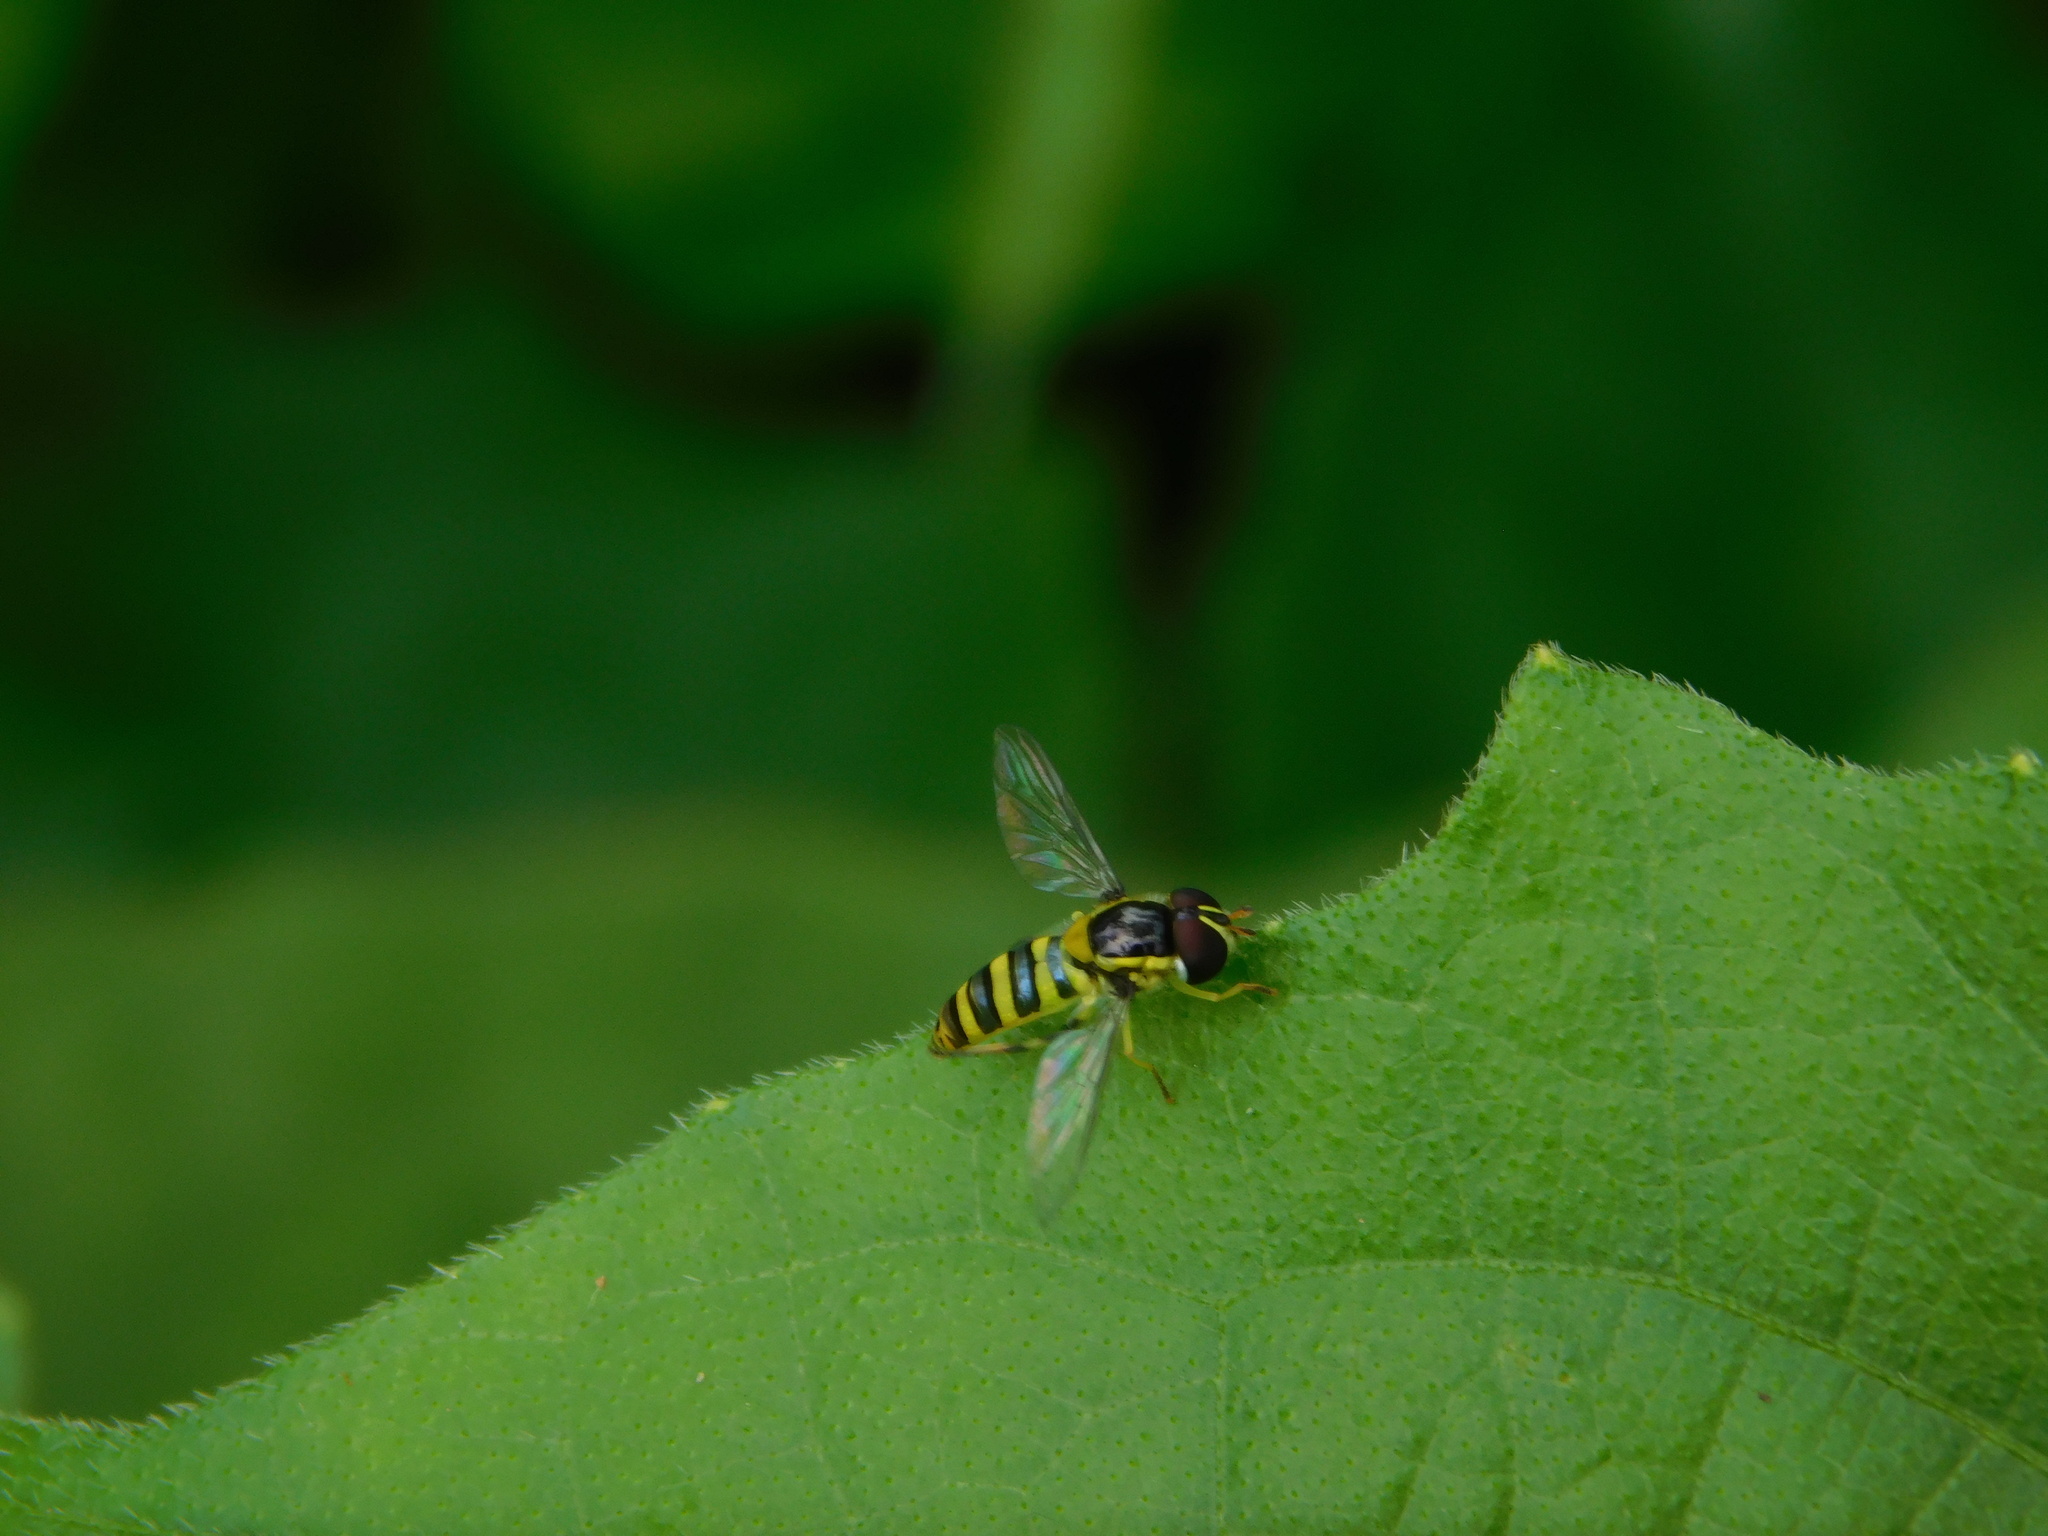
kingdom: Animalia
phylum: Arthropoda
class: Insecta
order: Diptera
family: Syrphidae
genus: Allograpta
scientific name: Allograpta javana
